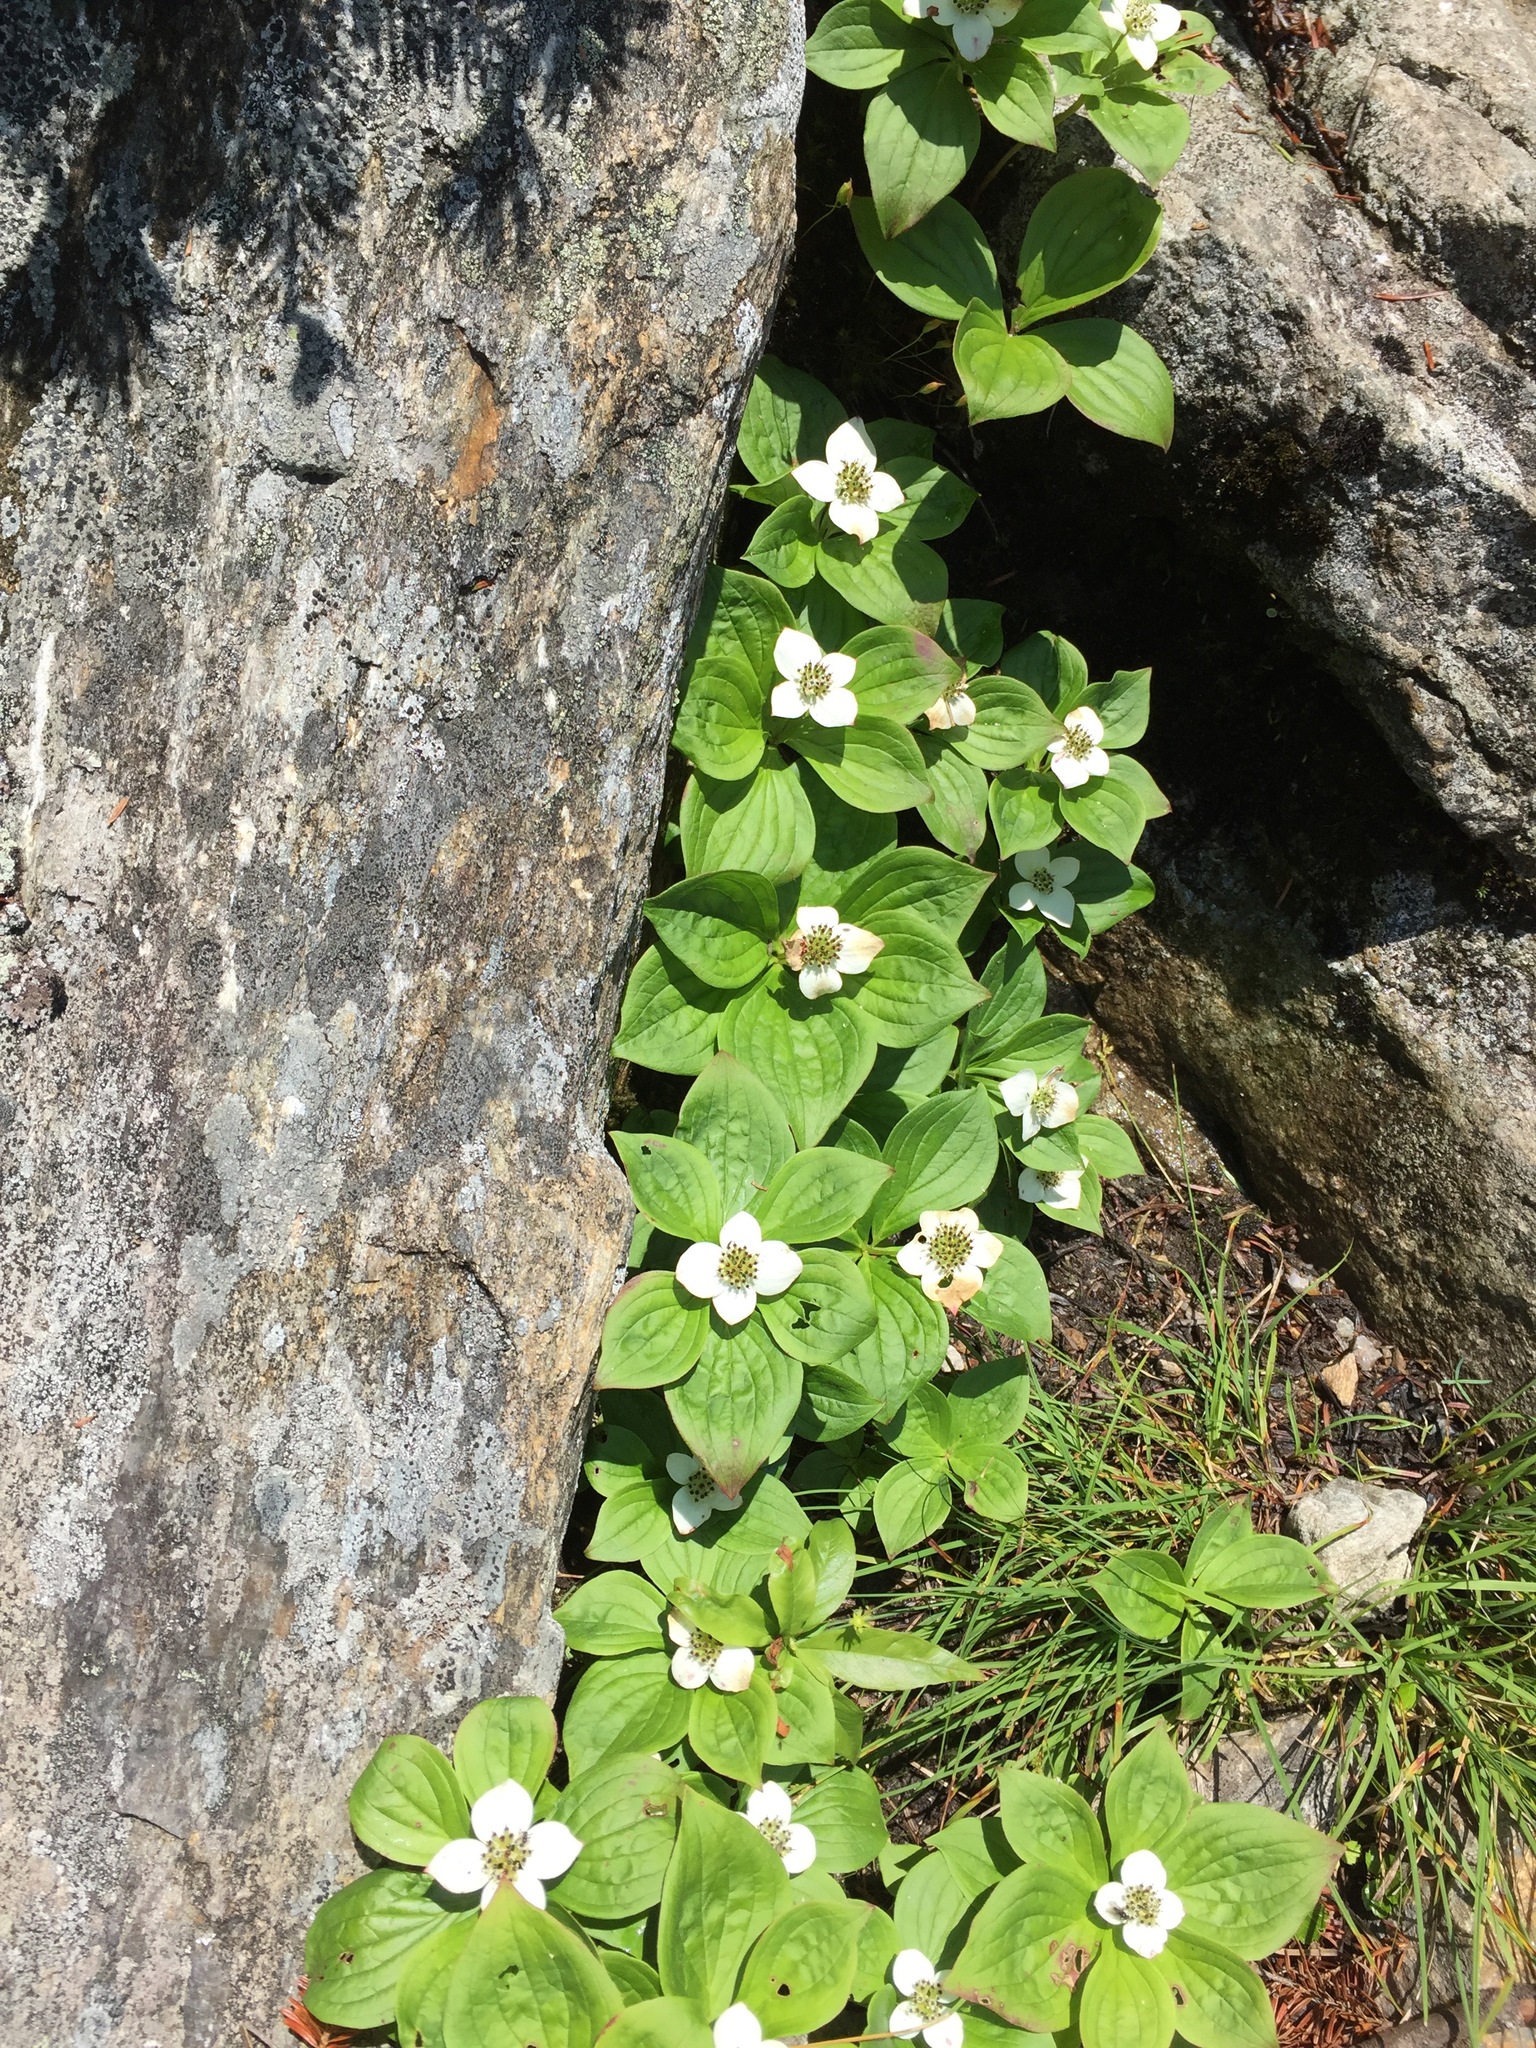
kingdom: Plantae
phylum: Tracheophyta
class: Magnoliopsida
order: Cornales
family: Cornaceae
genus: Cornus
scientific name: Cornus canadensis
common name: Creeping dogwood
